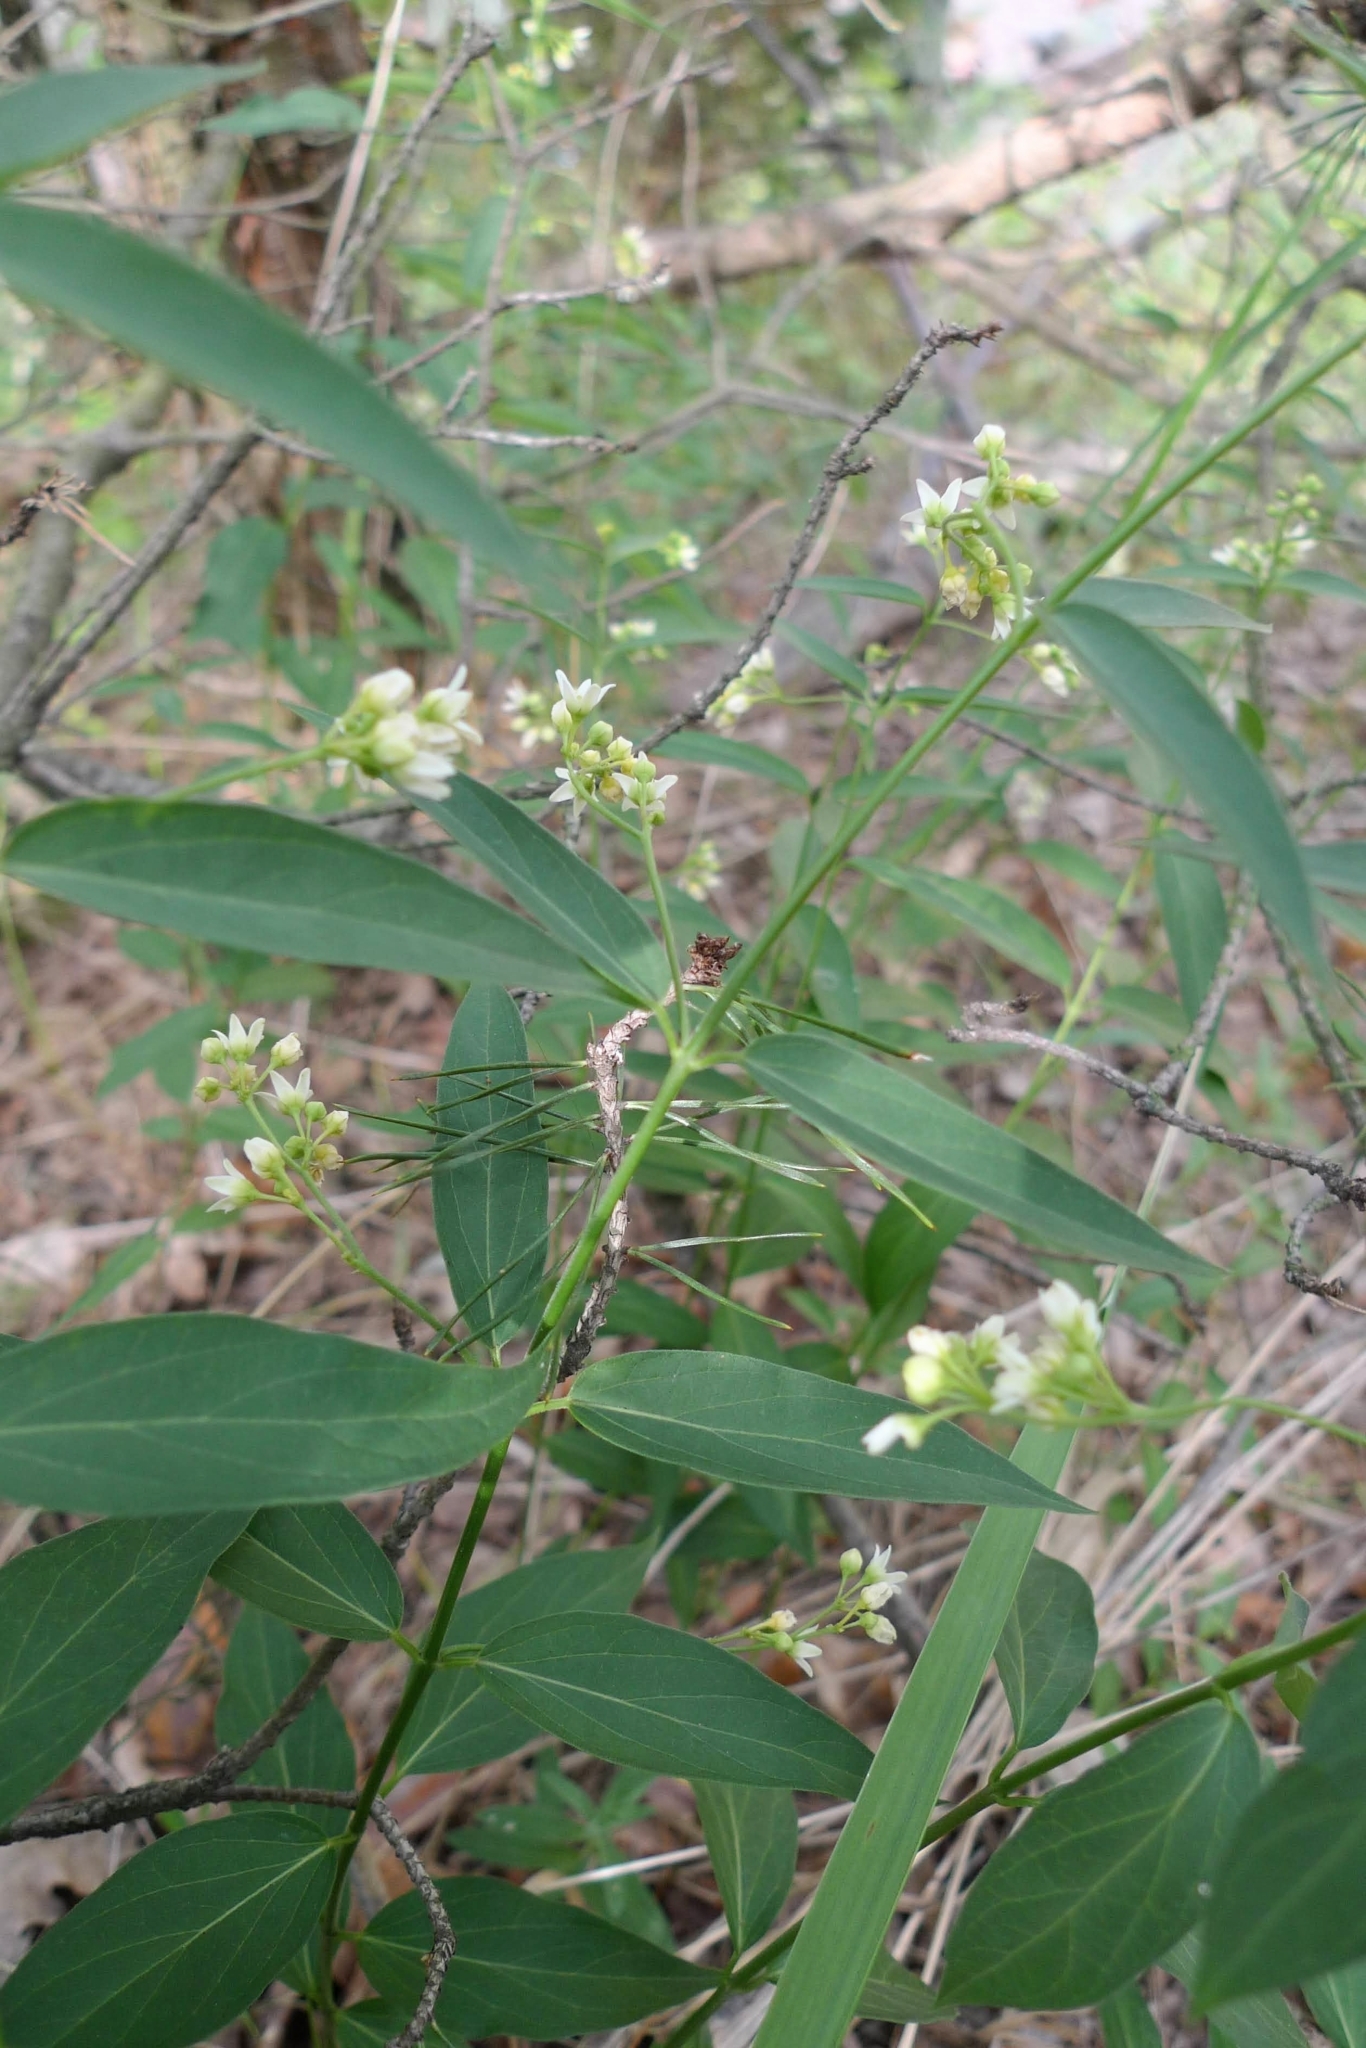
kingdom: Plantae
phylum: Tracheophyta
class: Magnoliopsida
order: Gentianales
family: Apocynaceae
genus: Vincetoxicum
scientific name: Vincetoxicum hirundinaria
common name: White swallowwort
